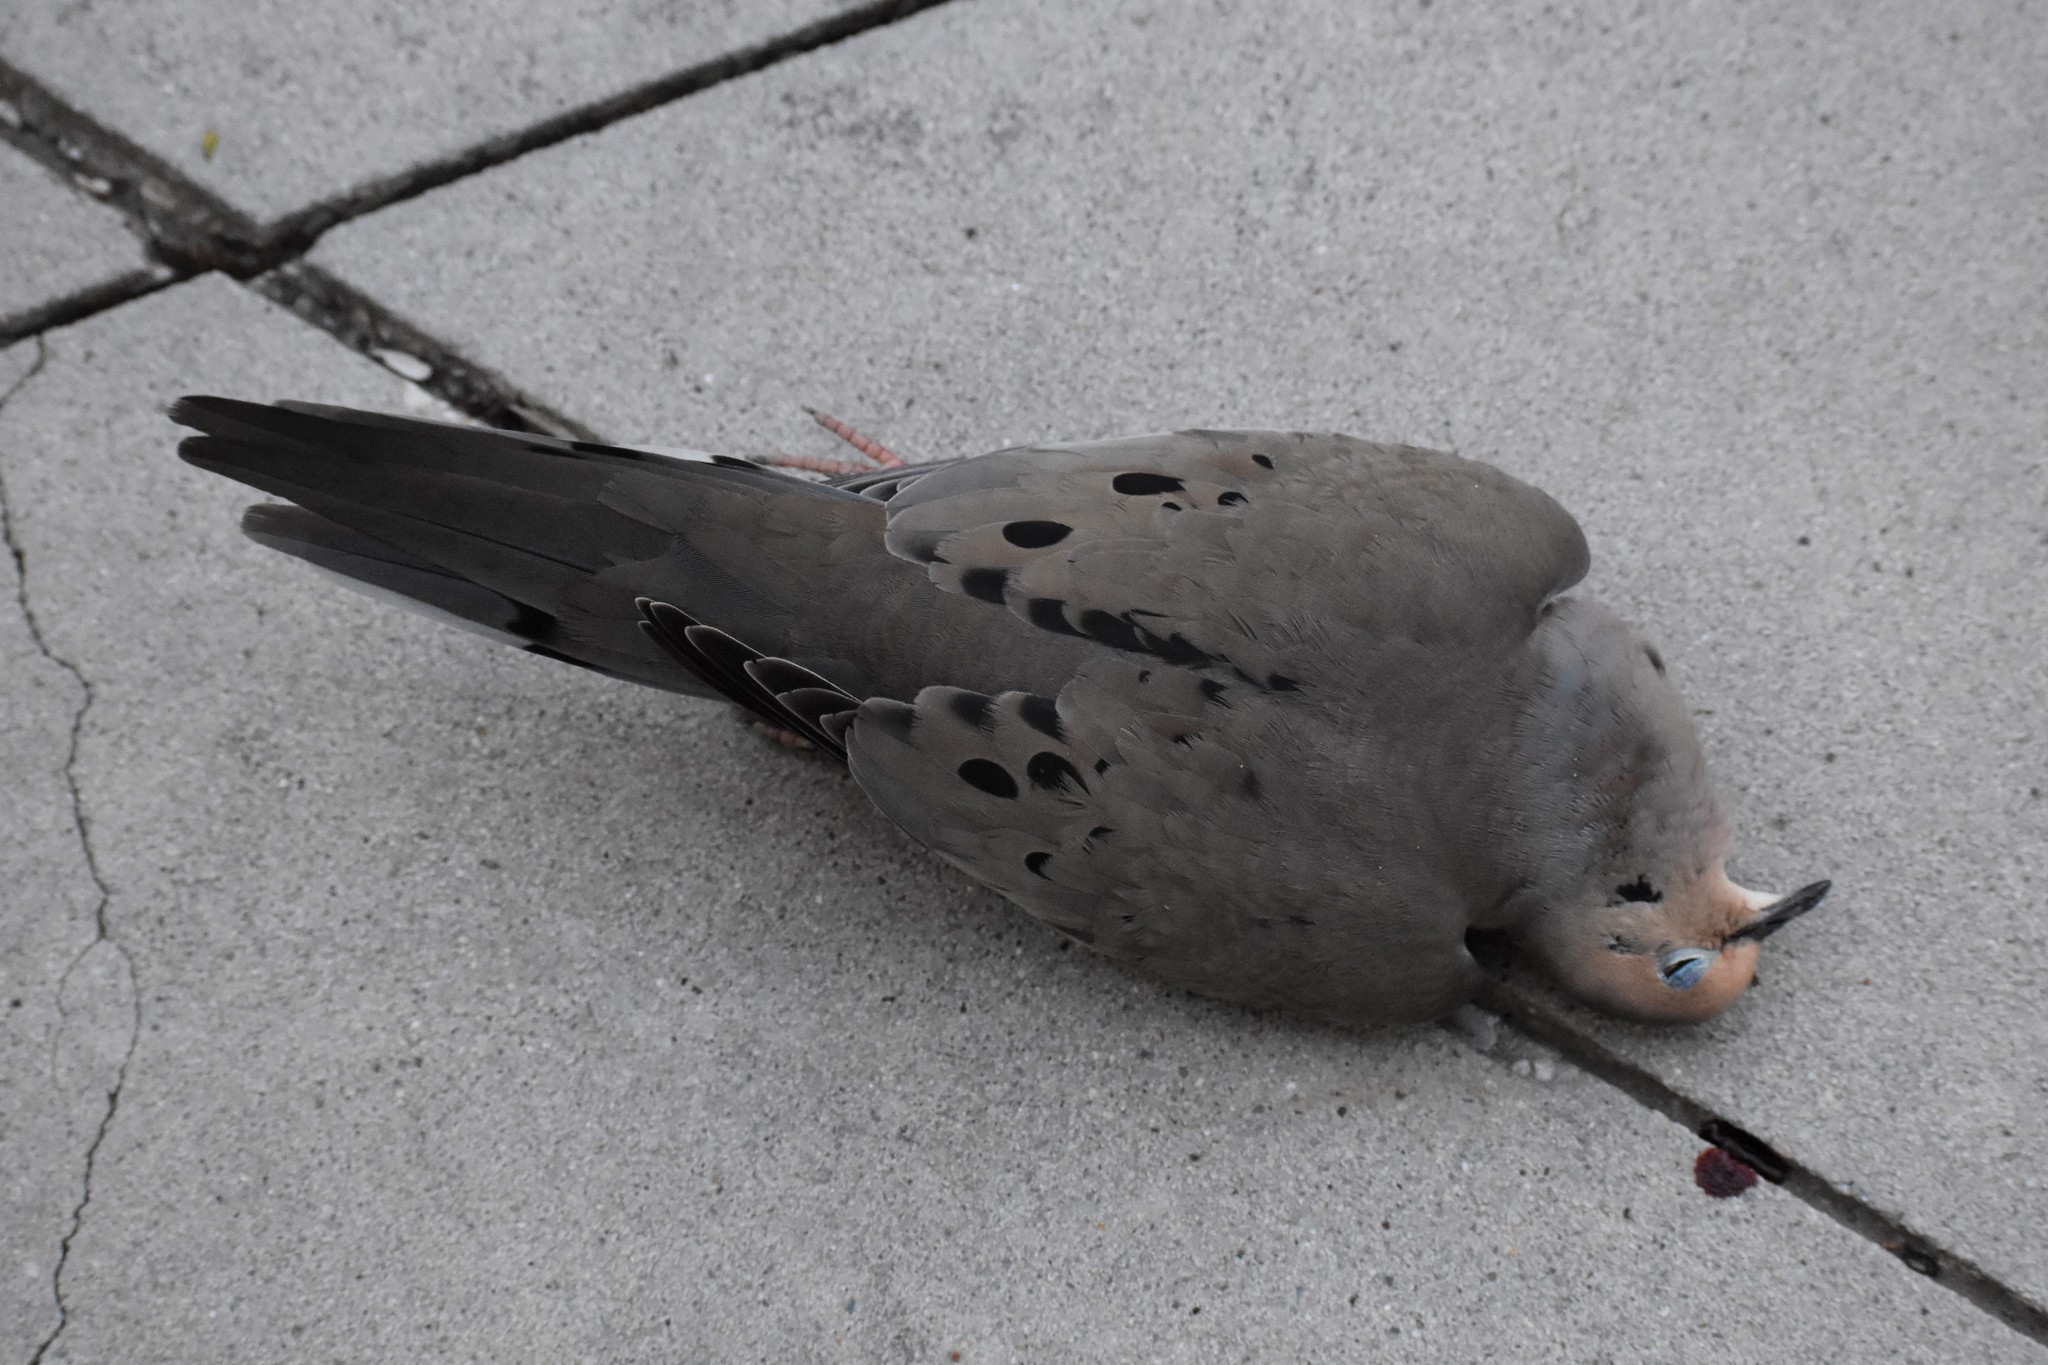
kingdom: Animalia
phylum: Chordata
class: Aves
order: Columbiformes
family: Columbidae
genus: Zenaida
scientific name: Zenaida macroura
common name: Mourning dove
